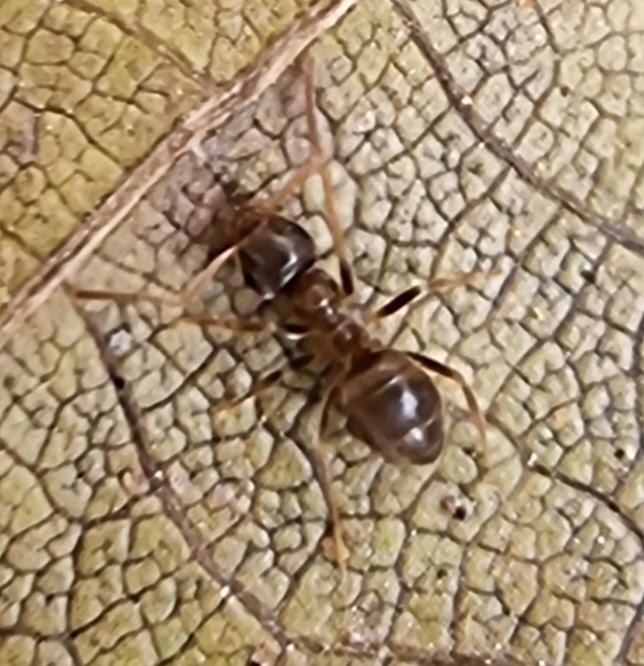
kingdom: Animalia
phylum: Arthropoda
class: Insecta
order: Hymenoptera
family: Formicidae
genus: Lasius
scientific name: Lasius neglectus
